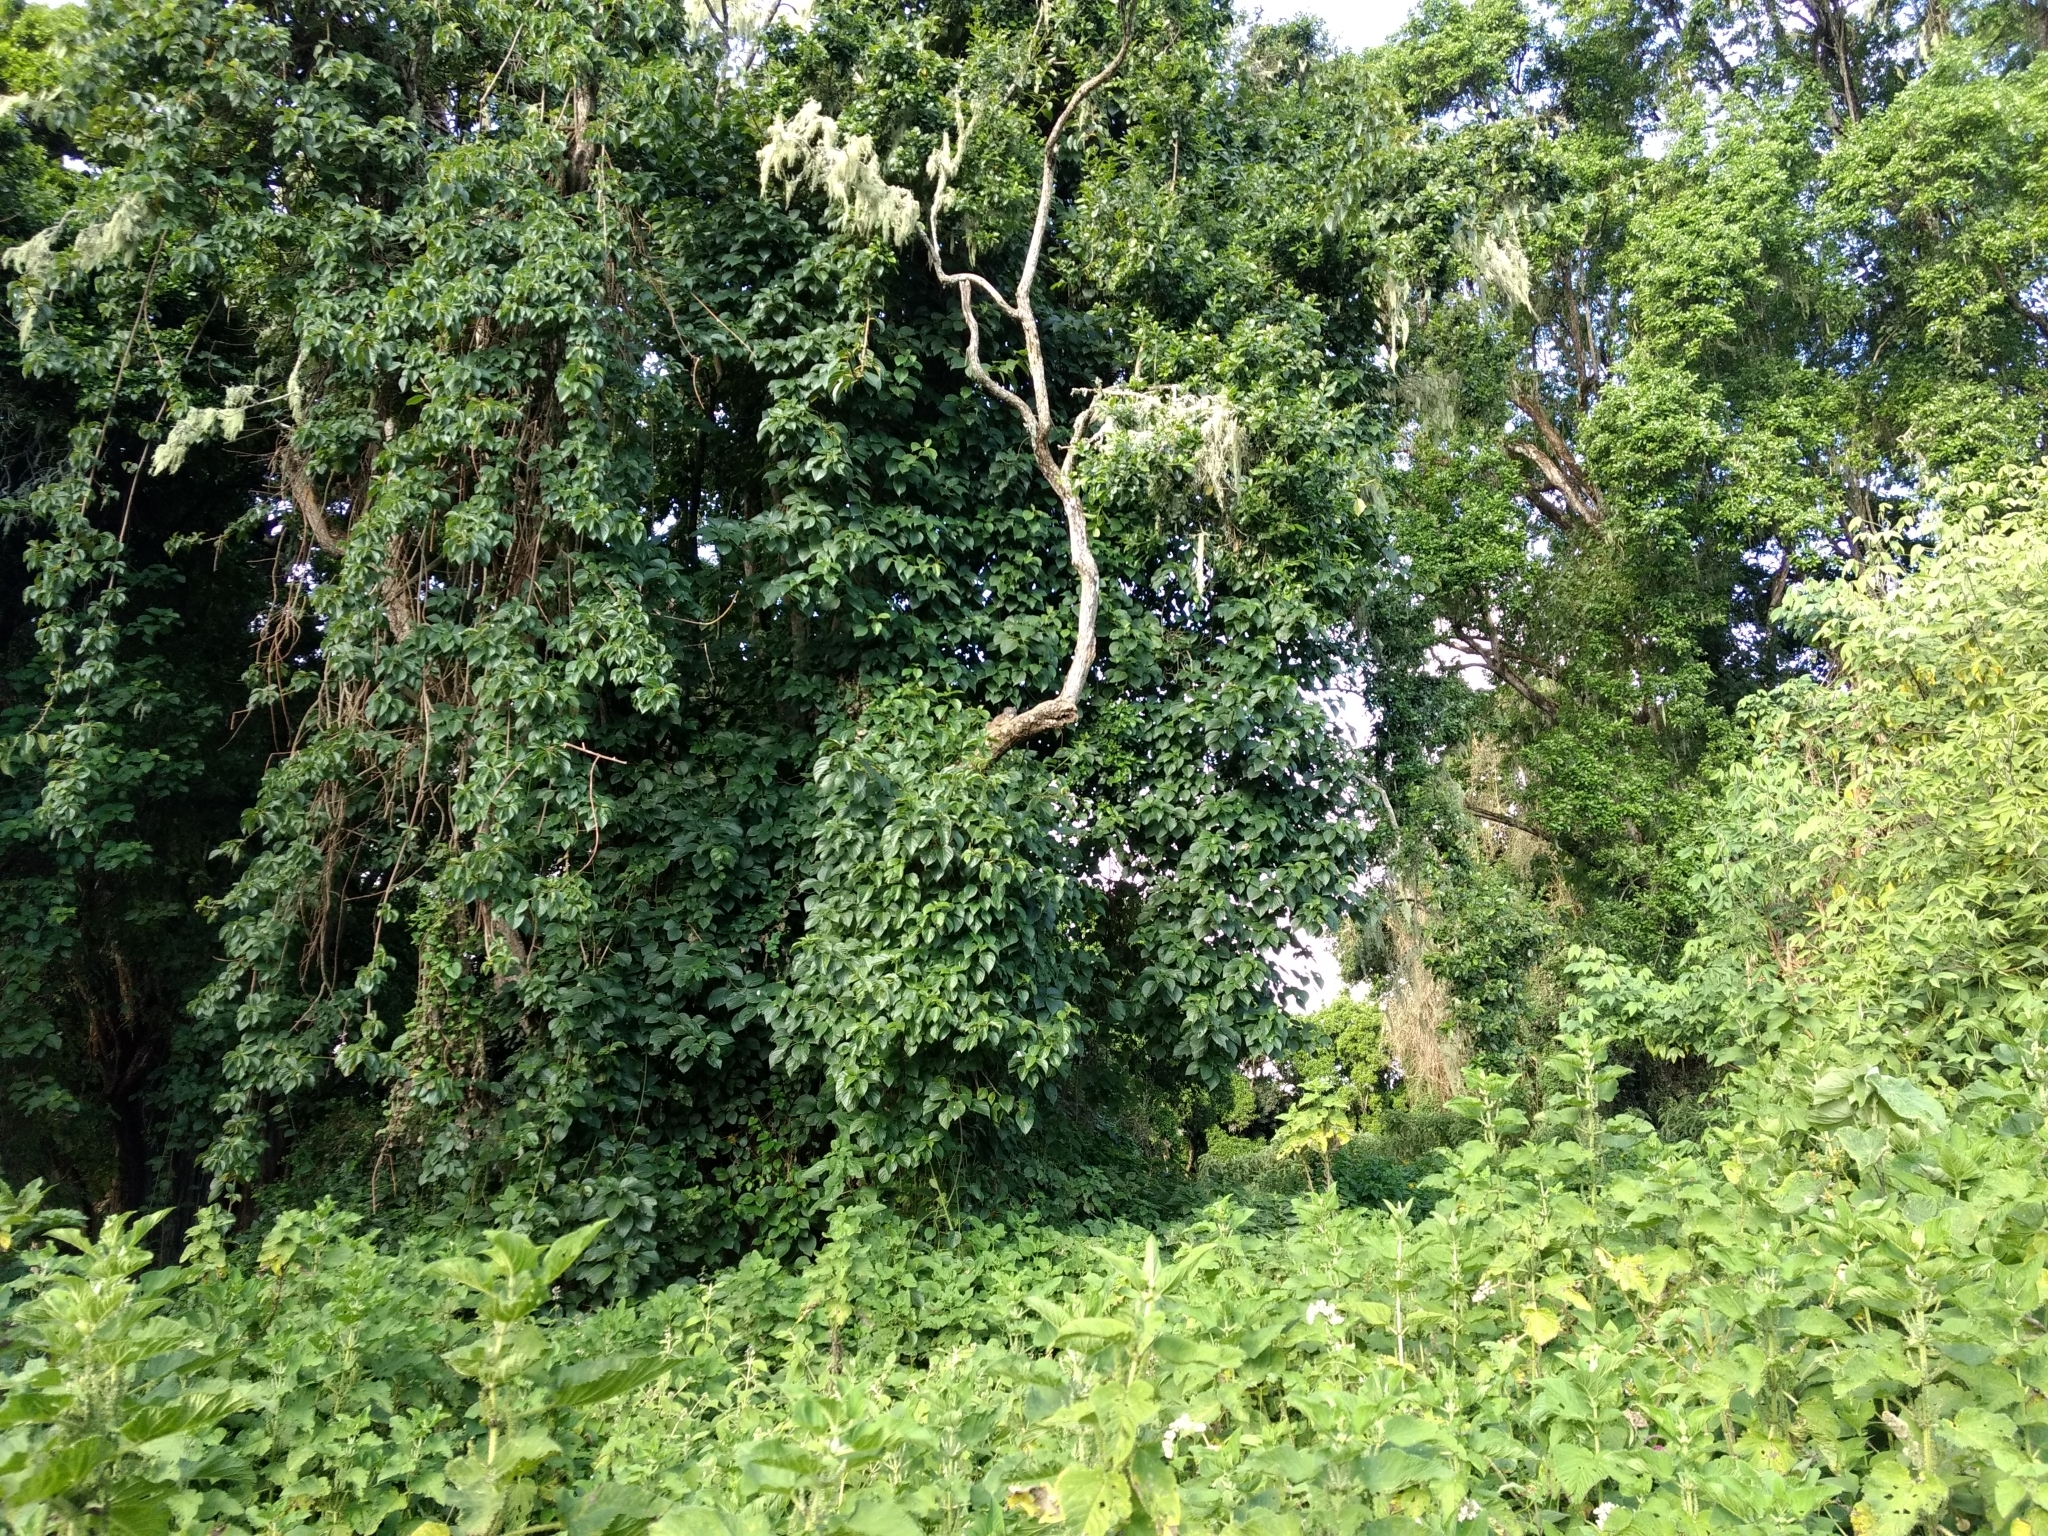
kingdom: Animalia
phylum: Chordata
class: Mammalia
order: Hyracoidea
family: Procaviidae
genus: Dendrohyrax
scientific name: Dendrohyrax
